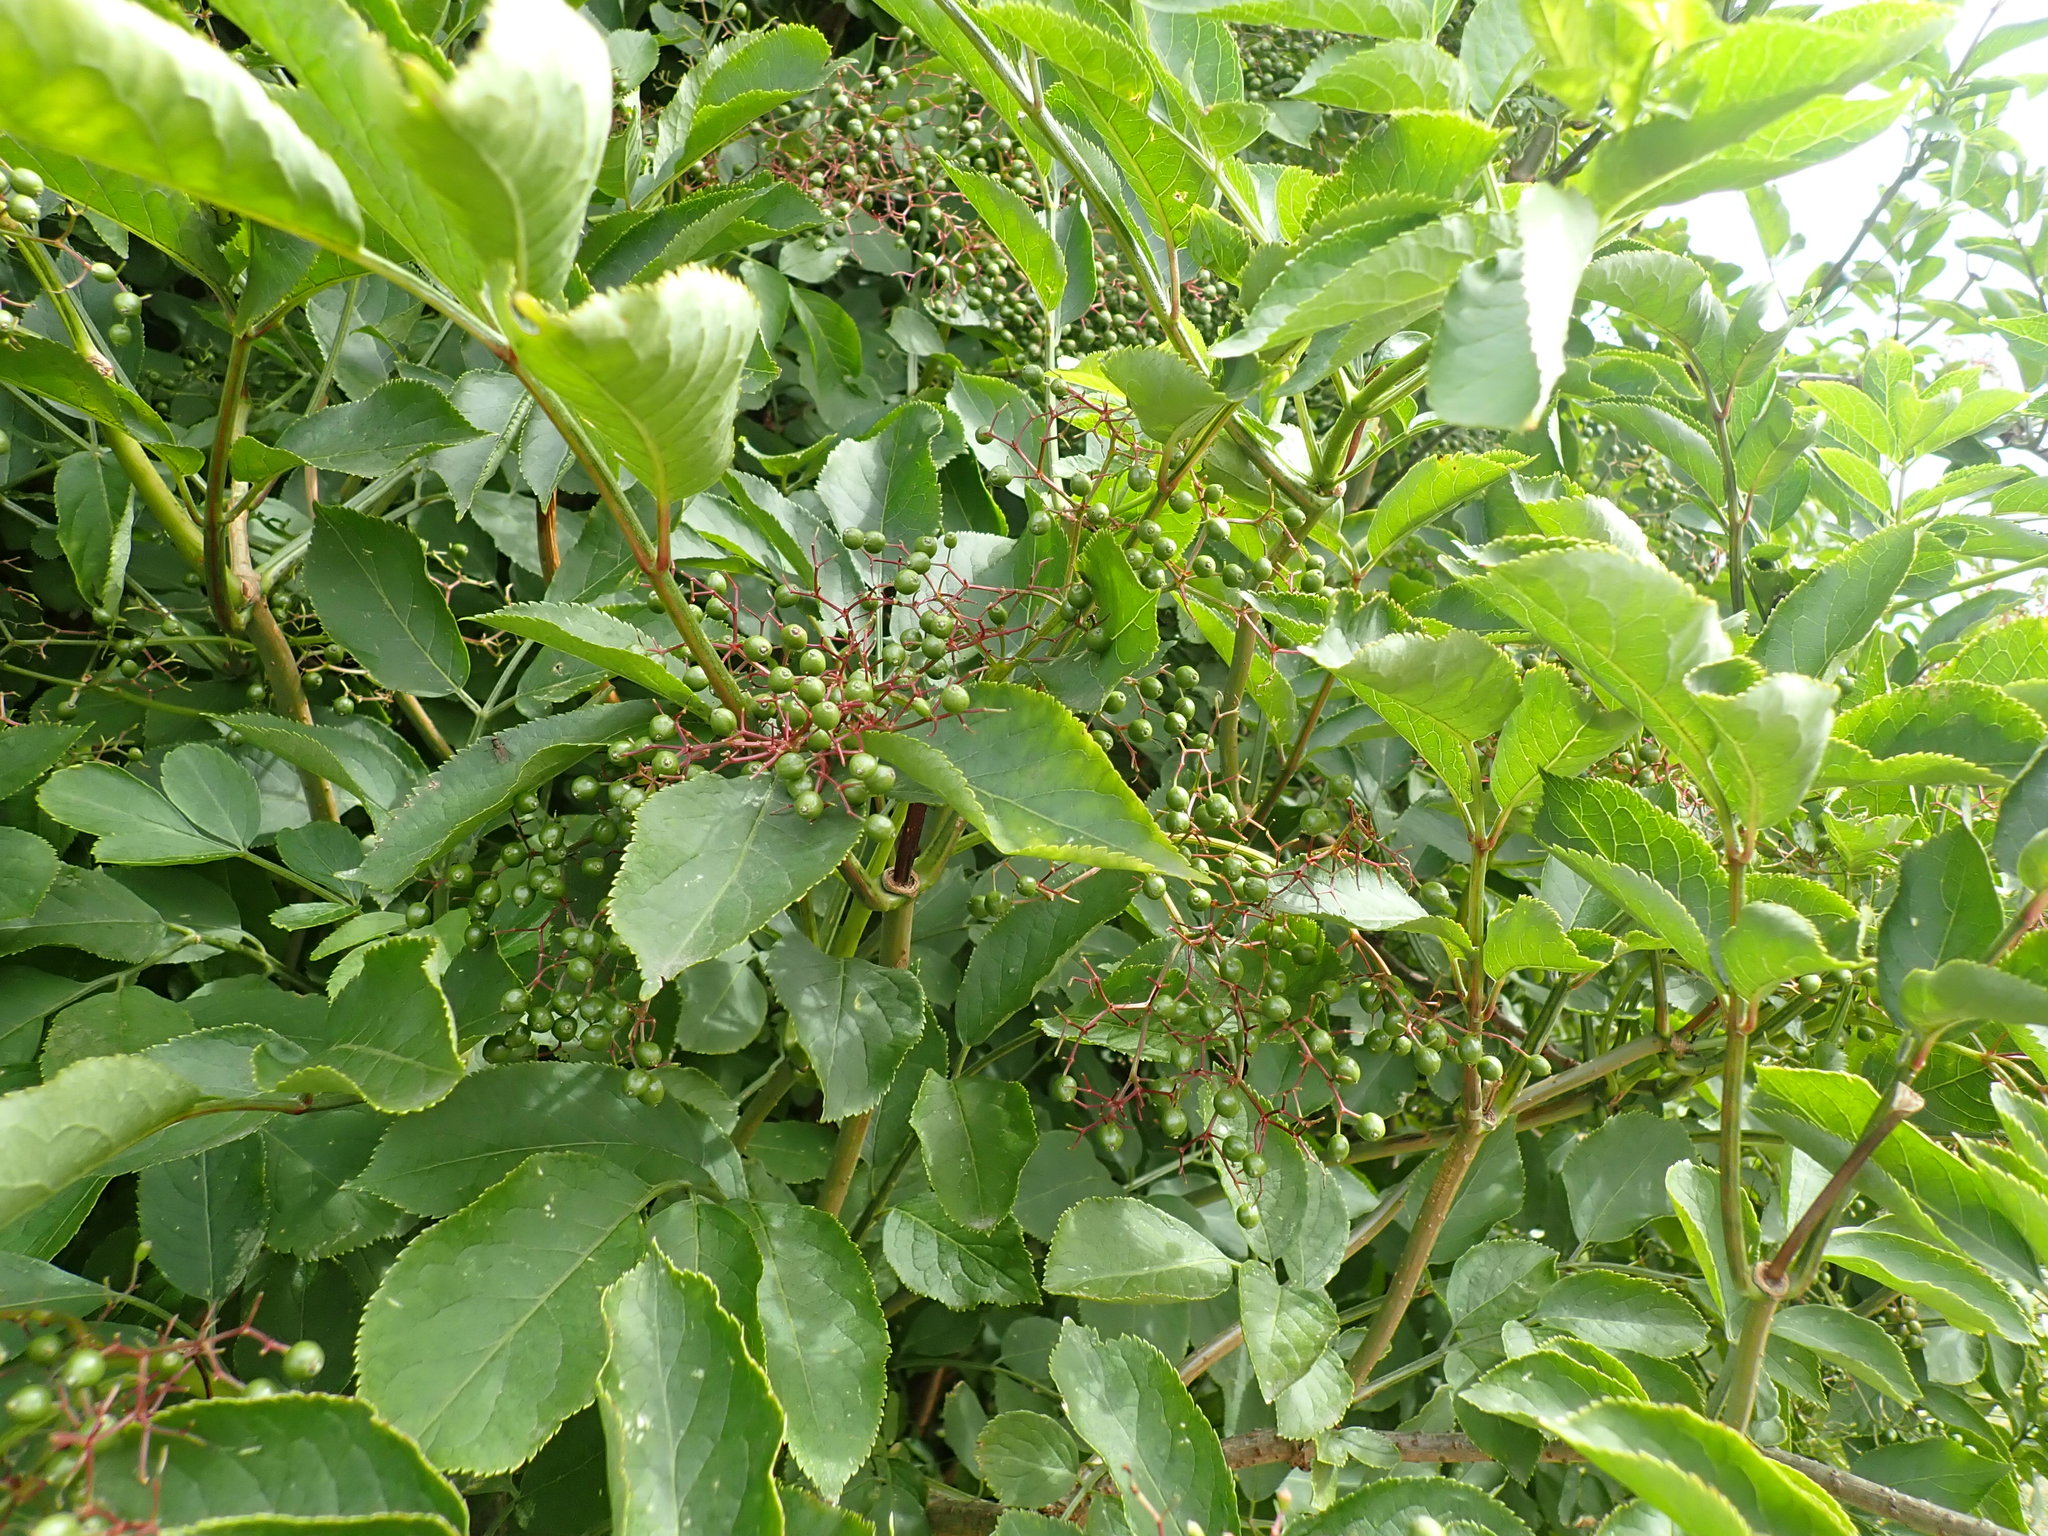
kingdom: Plantae
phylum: Tracheophyta
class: Magnoliopsida
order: Dipsacales
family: Viburnaceae
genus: Sambucus
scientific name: Sambucus nigra
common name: Elder
